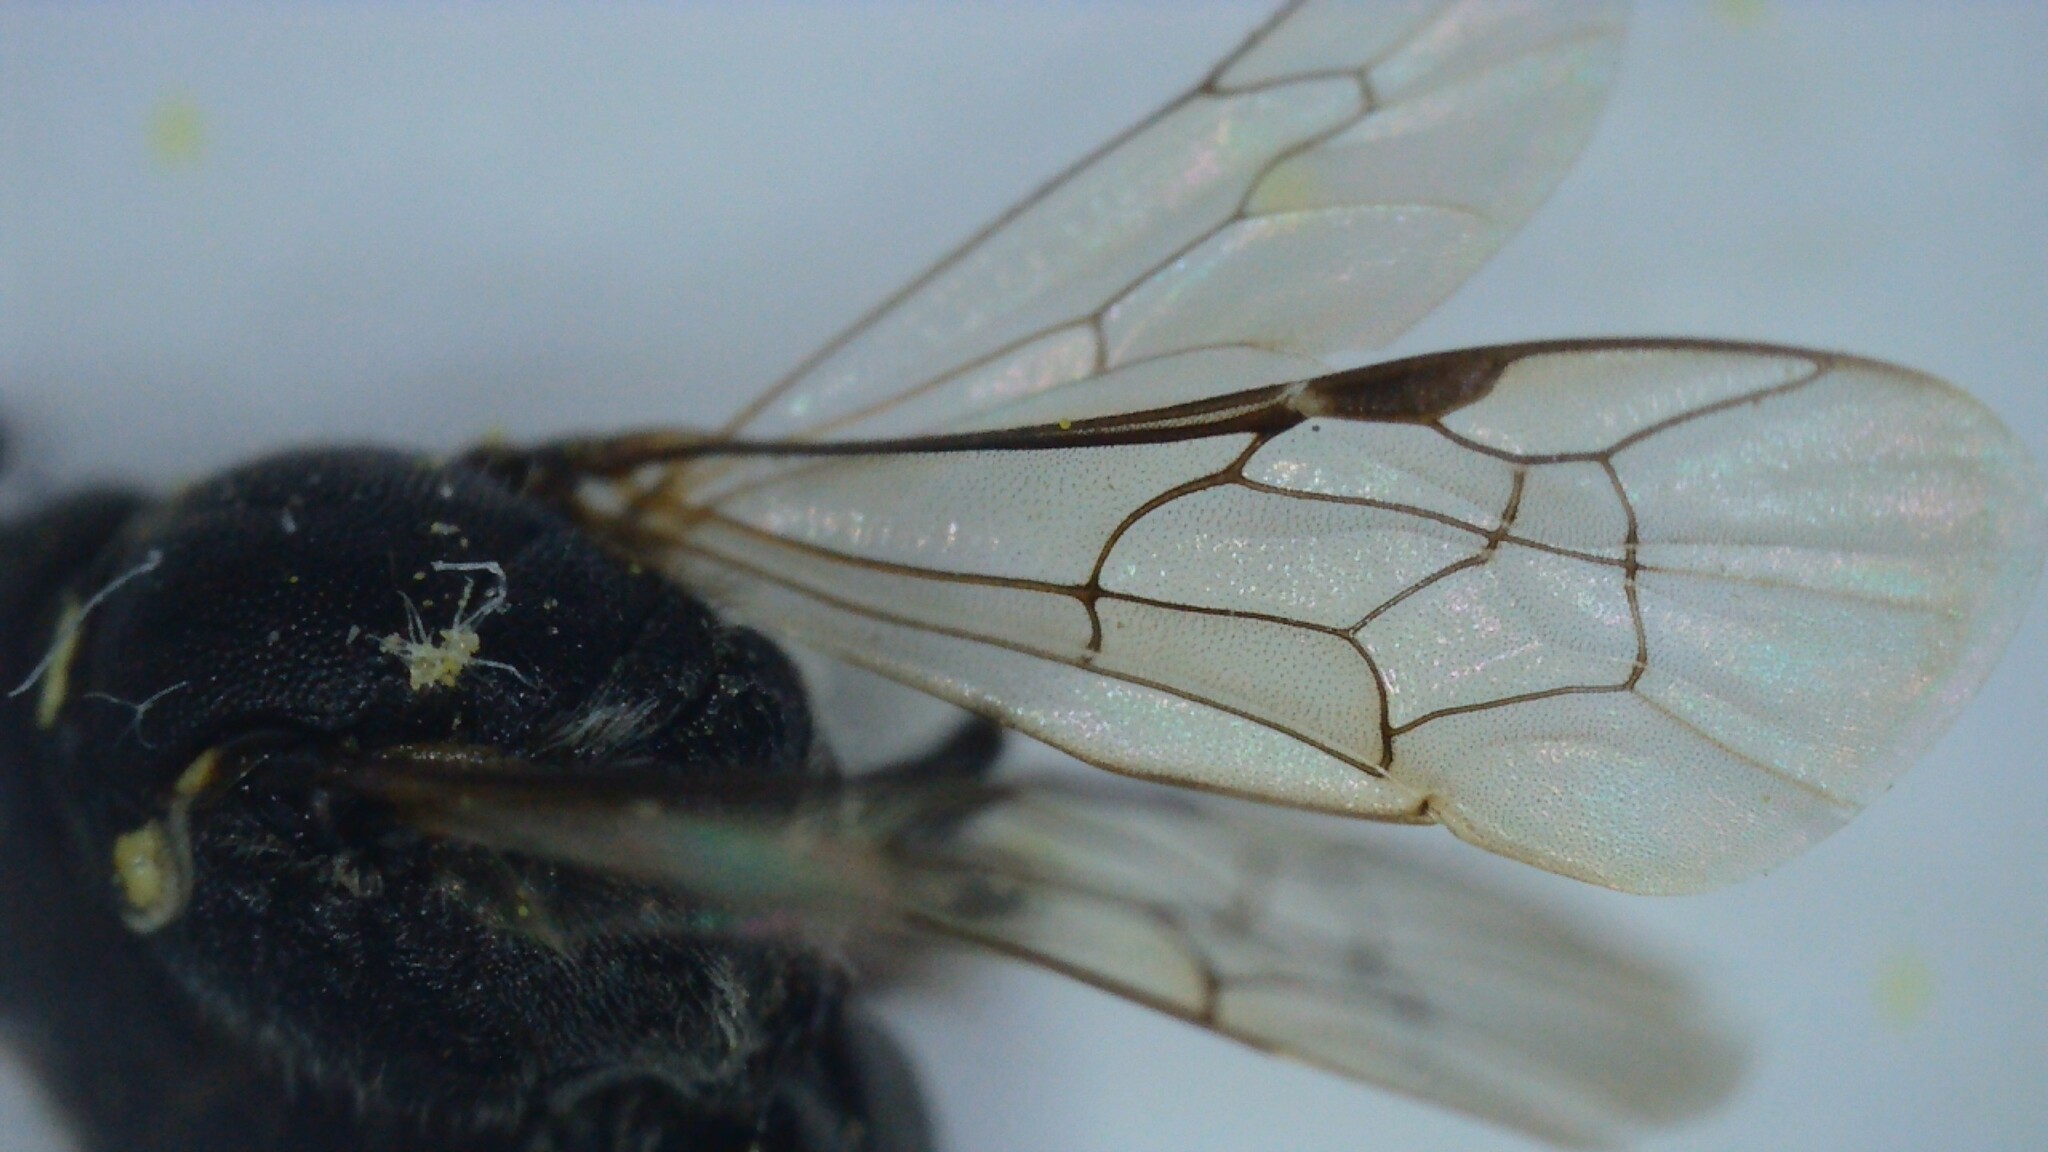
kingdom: Animalia
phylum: Arthropoda
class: Insecta
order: Hymenoptera
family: Colletidae
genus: Hylaeus
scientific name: Hylaeus hyalinatus
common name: Hyaline masked bee
